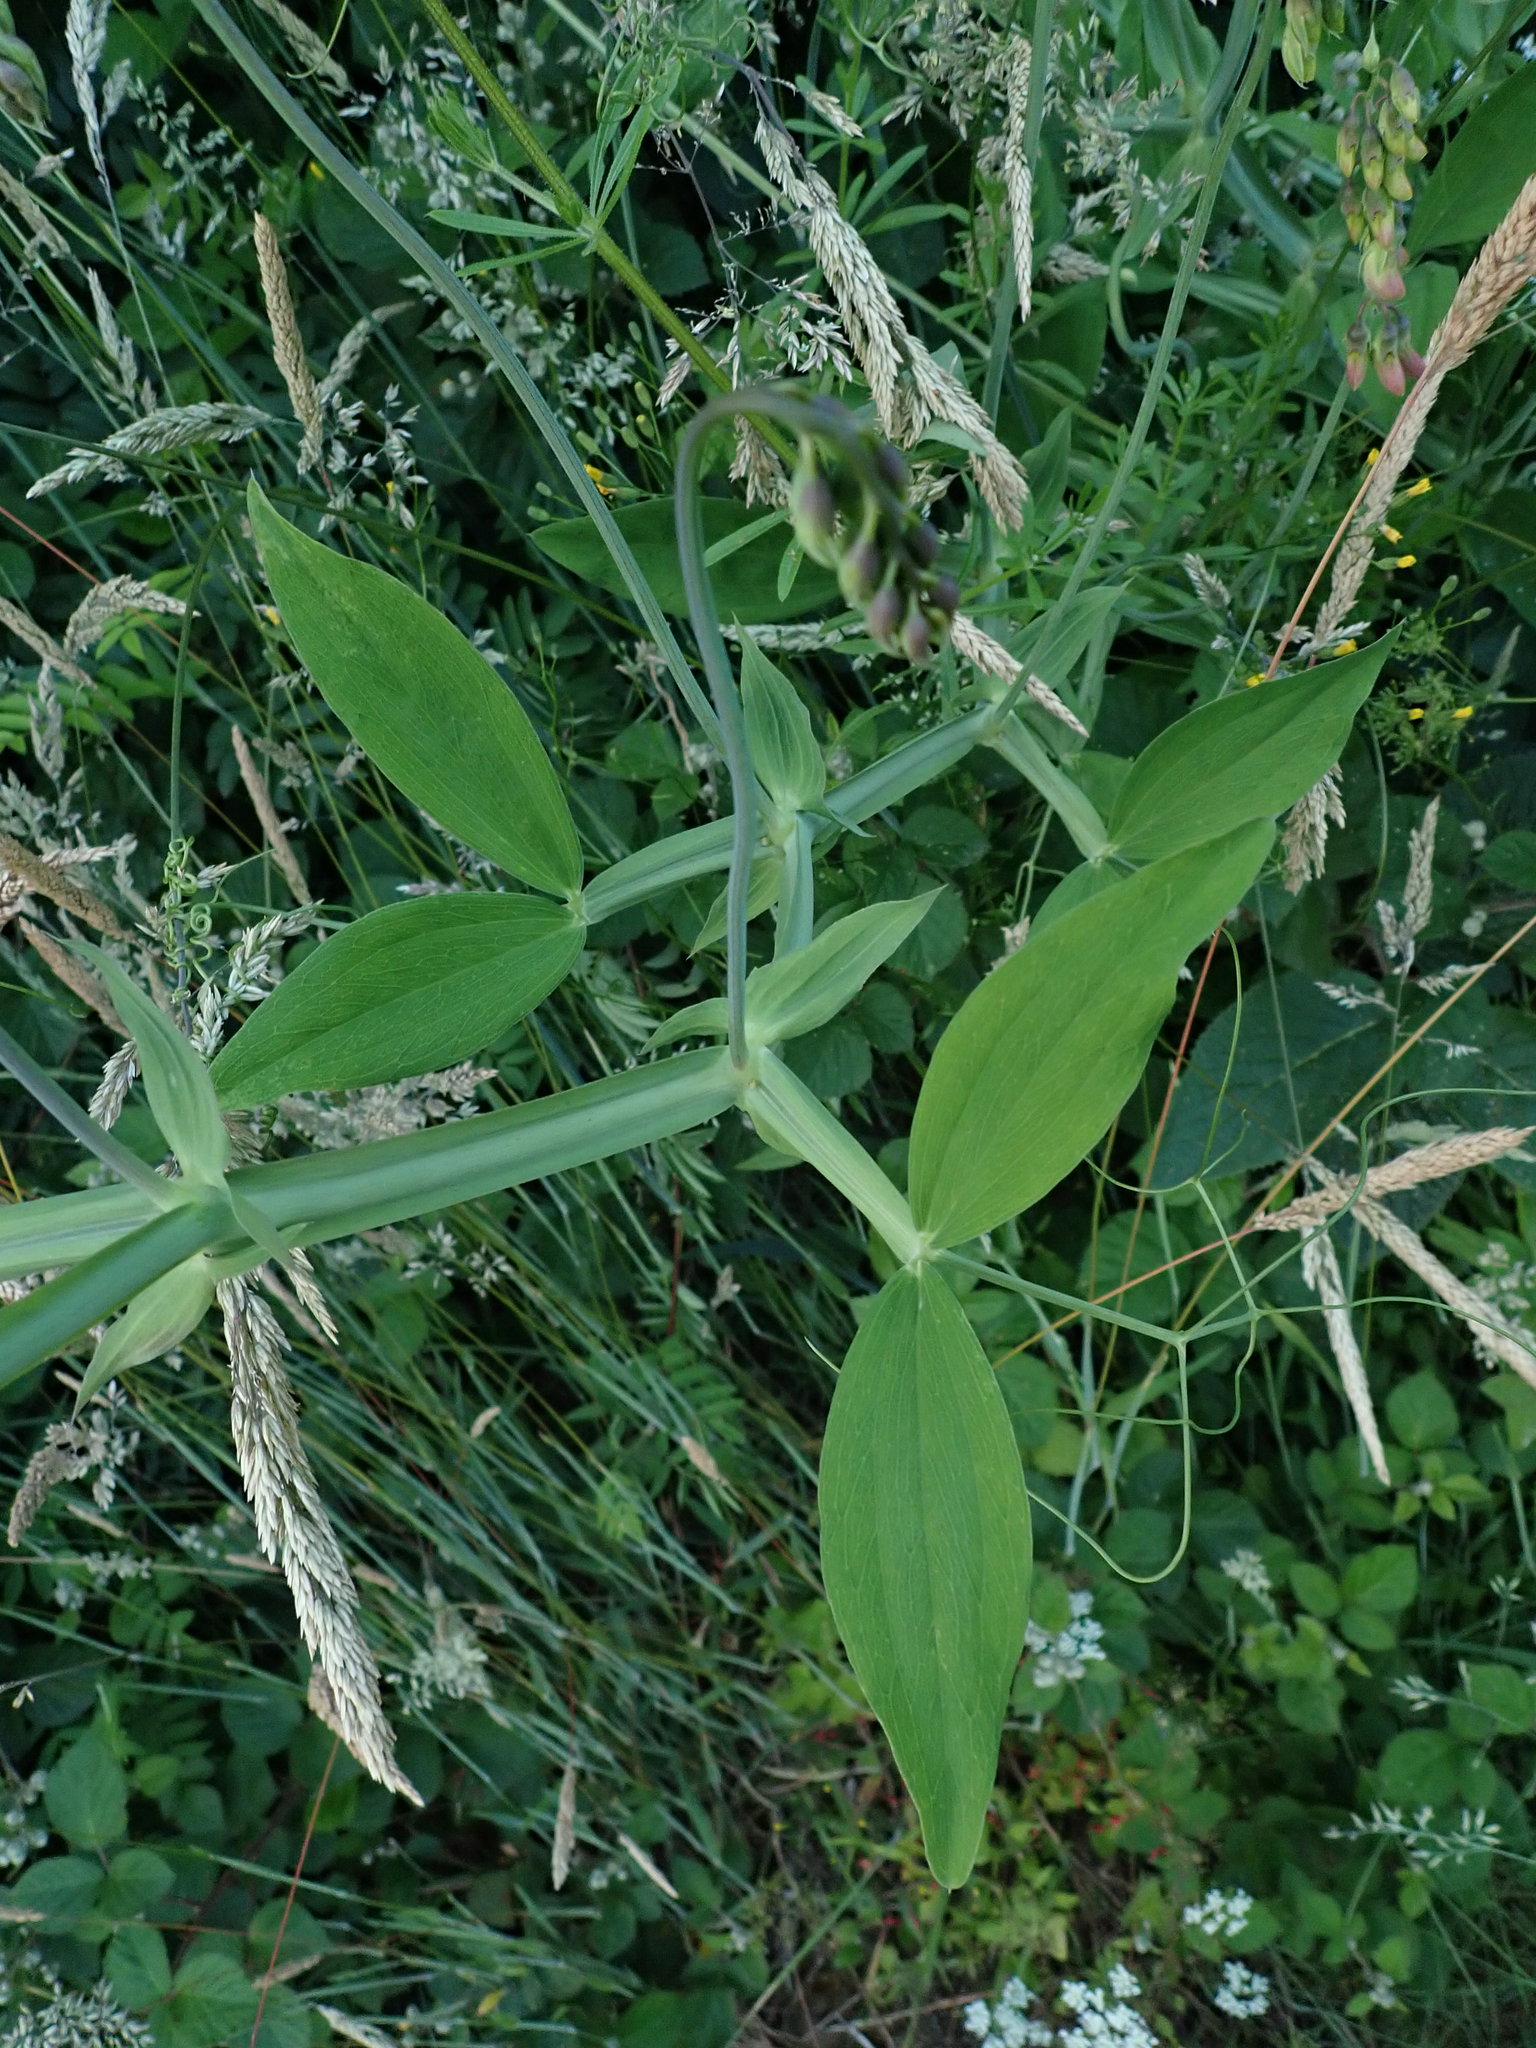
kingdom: Plantae
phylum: Tracheophyta
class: Magnoliopsida
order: Fabales
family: Fabaceae
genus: Lathyrus
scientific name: Lathyrus latifolius
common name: Perennial pea
